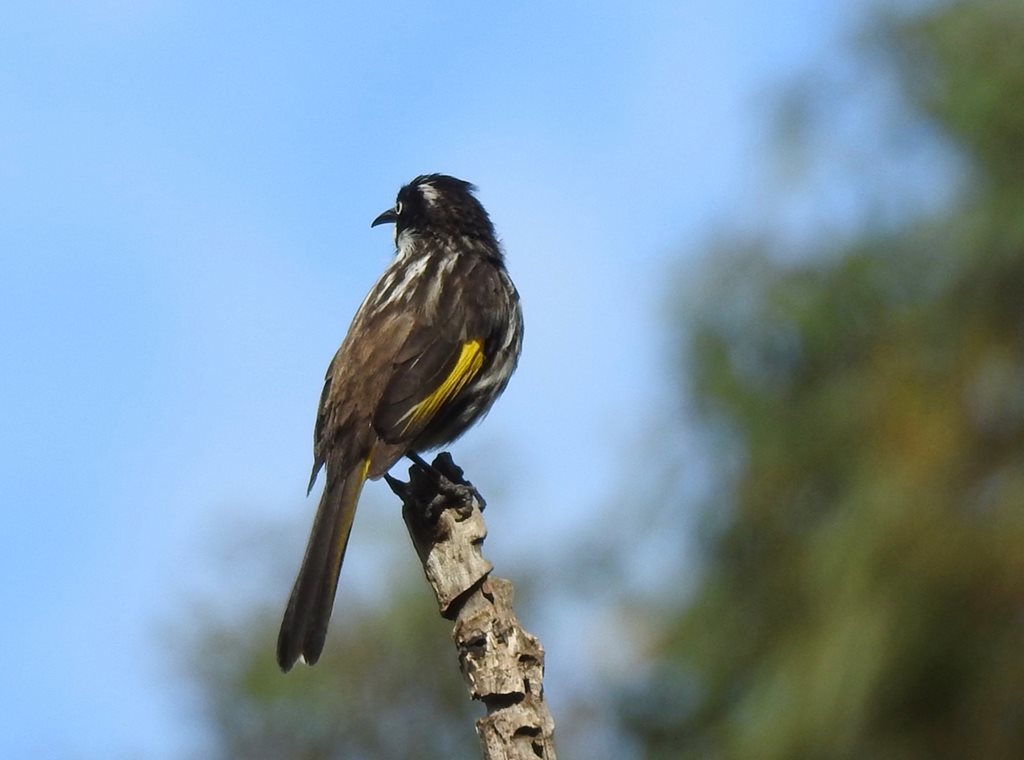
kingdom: Animalia
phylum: Chordata
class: Aves
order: Passeriformes
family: Meliphagidae
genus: Phylidonyris
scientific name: Phylidonyris novaehollandiae
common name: New holland honeyeater
